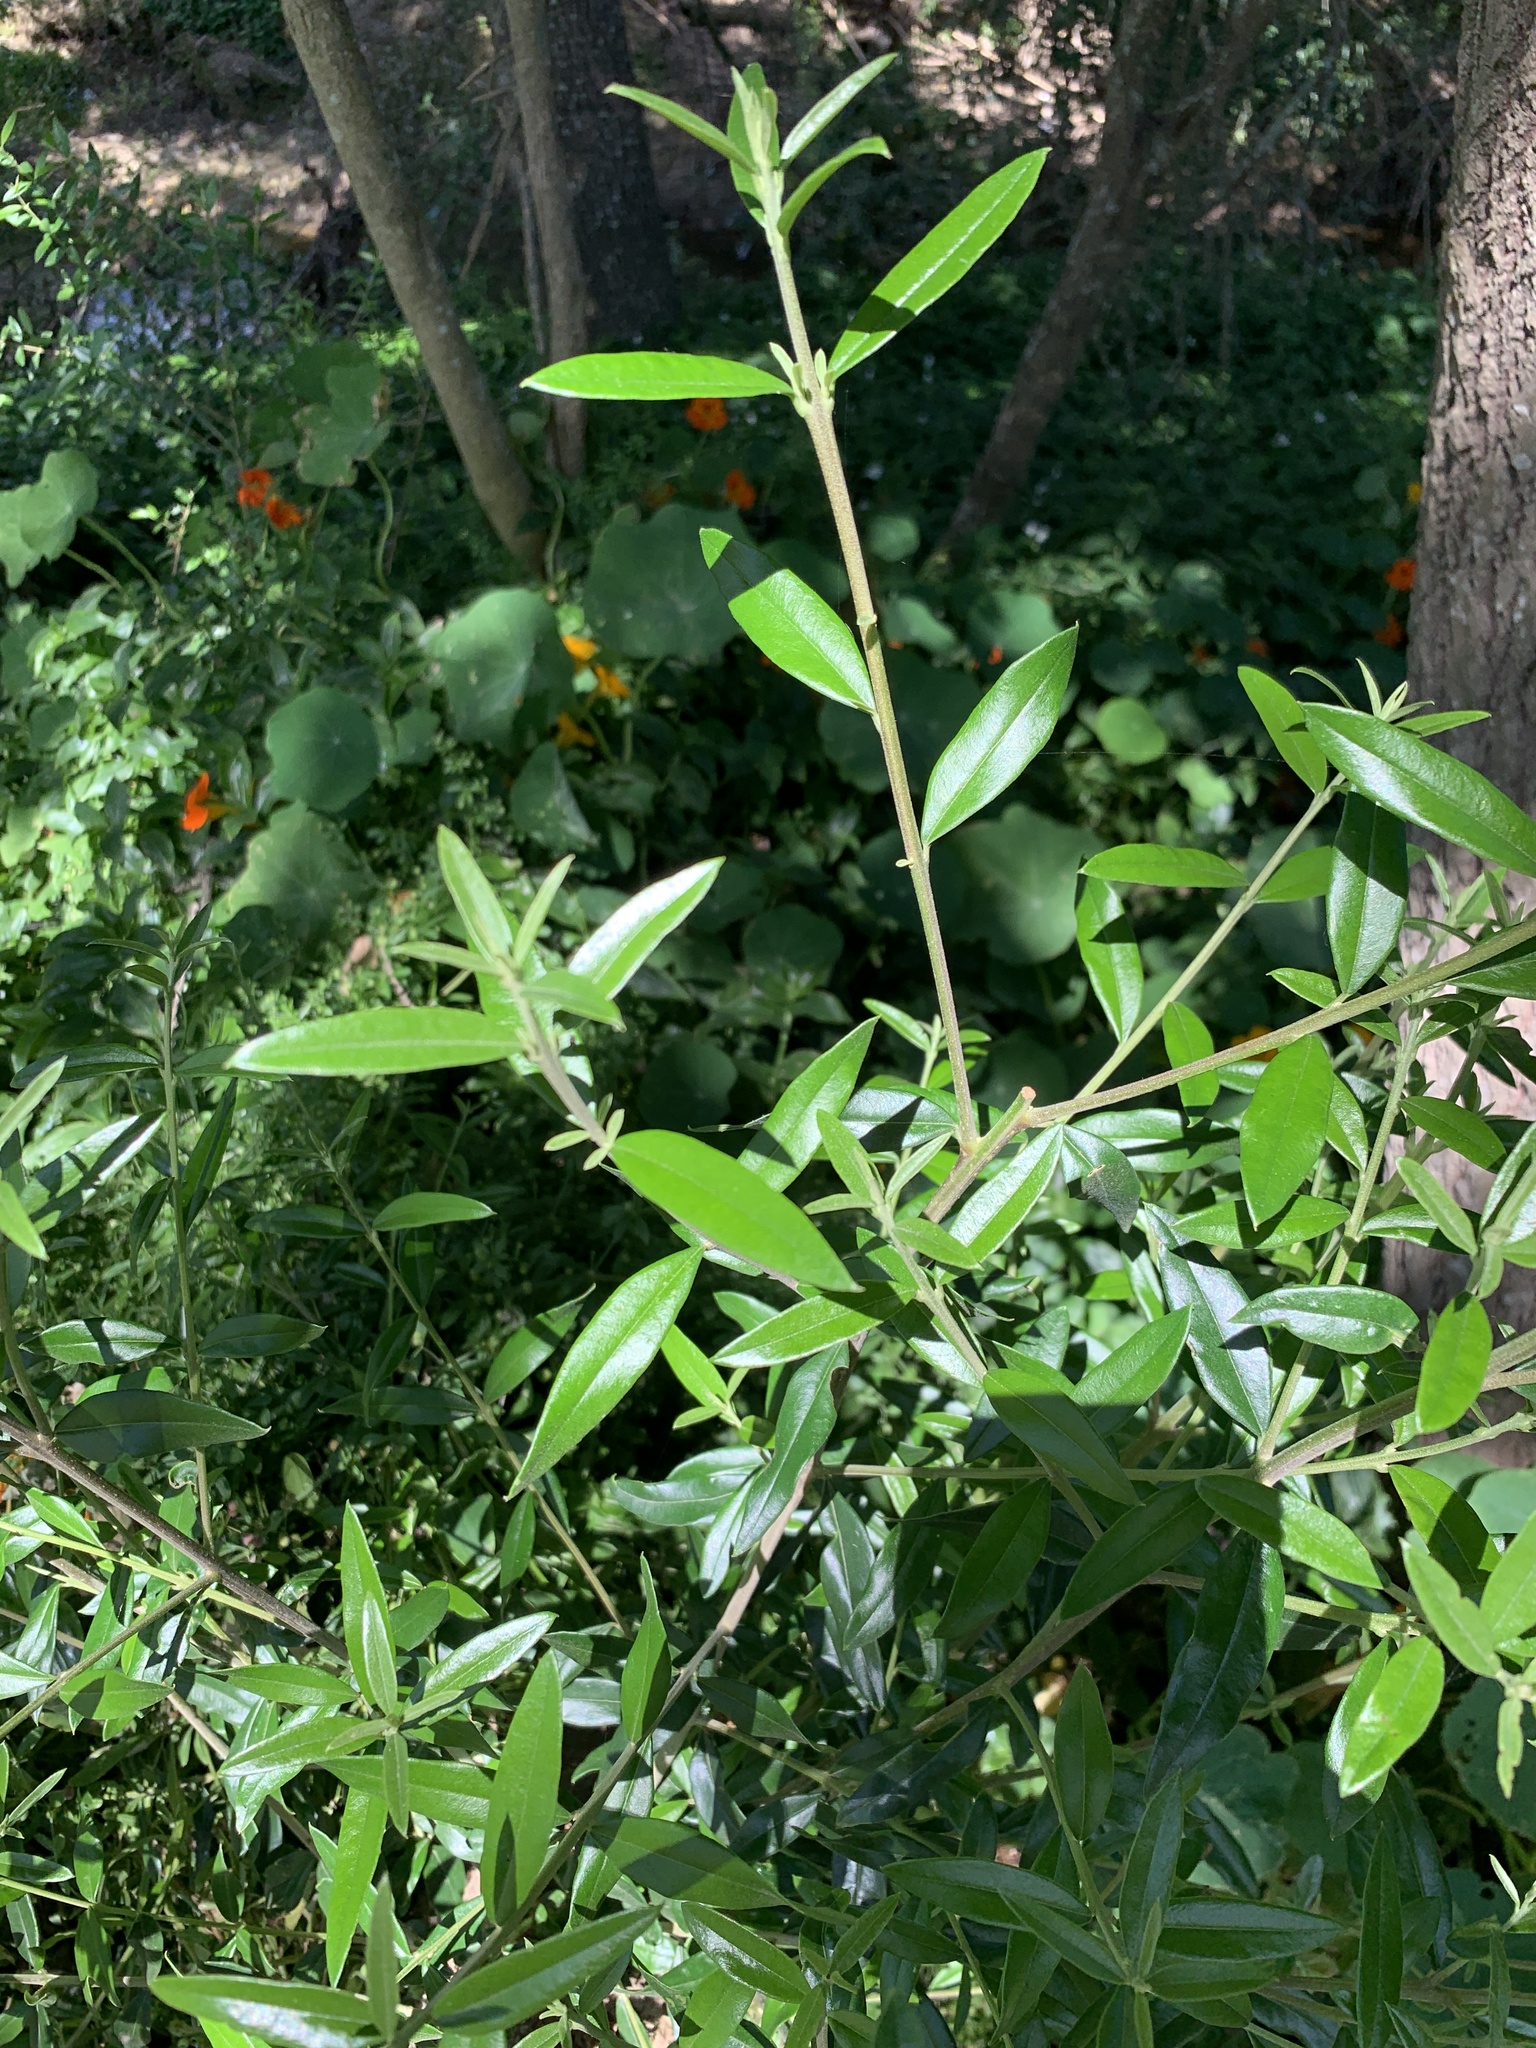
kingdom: Plantae
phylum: Tracheophyta
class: Magnoliopsida
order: Lamiales
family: Oleaceae
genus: Olea
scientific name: Olea europaea
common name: Olive
